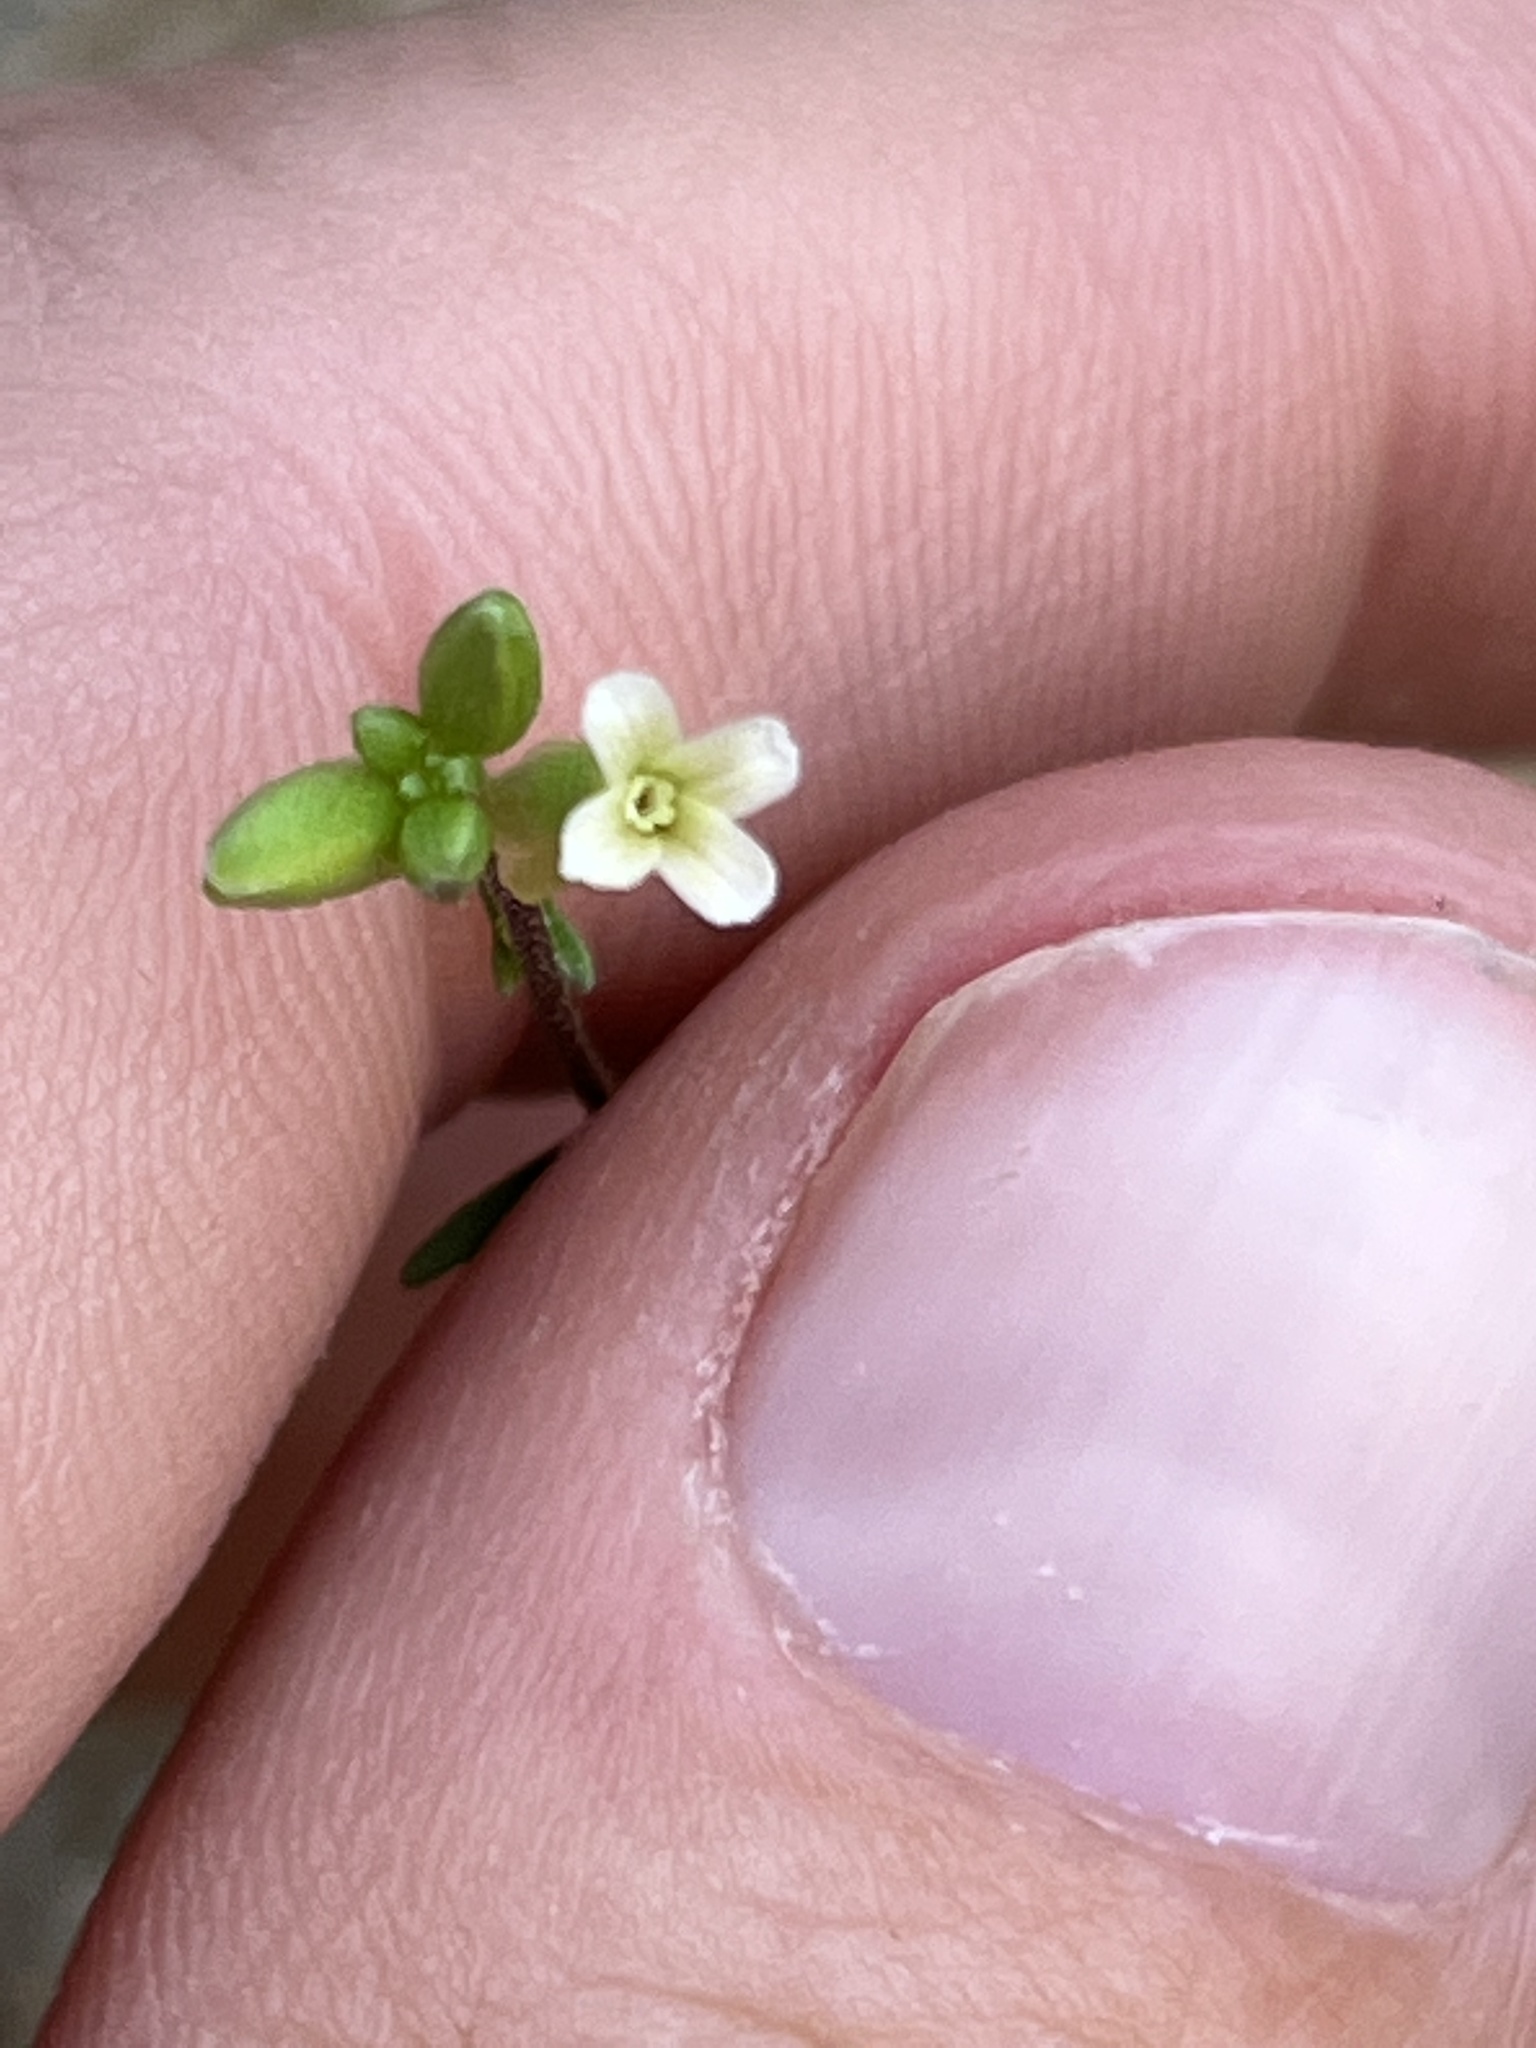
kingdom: Plantae
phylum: Tracheophyta
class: Magnoliopsida
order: Brassicales
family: Brassicaceae
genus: Streptanthus
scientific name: Streptanthus cooperi
